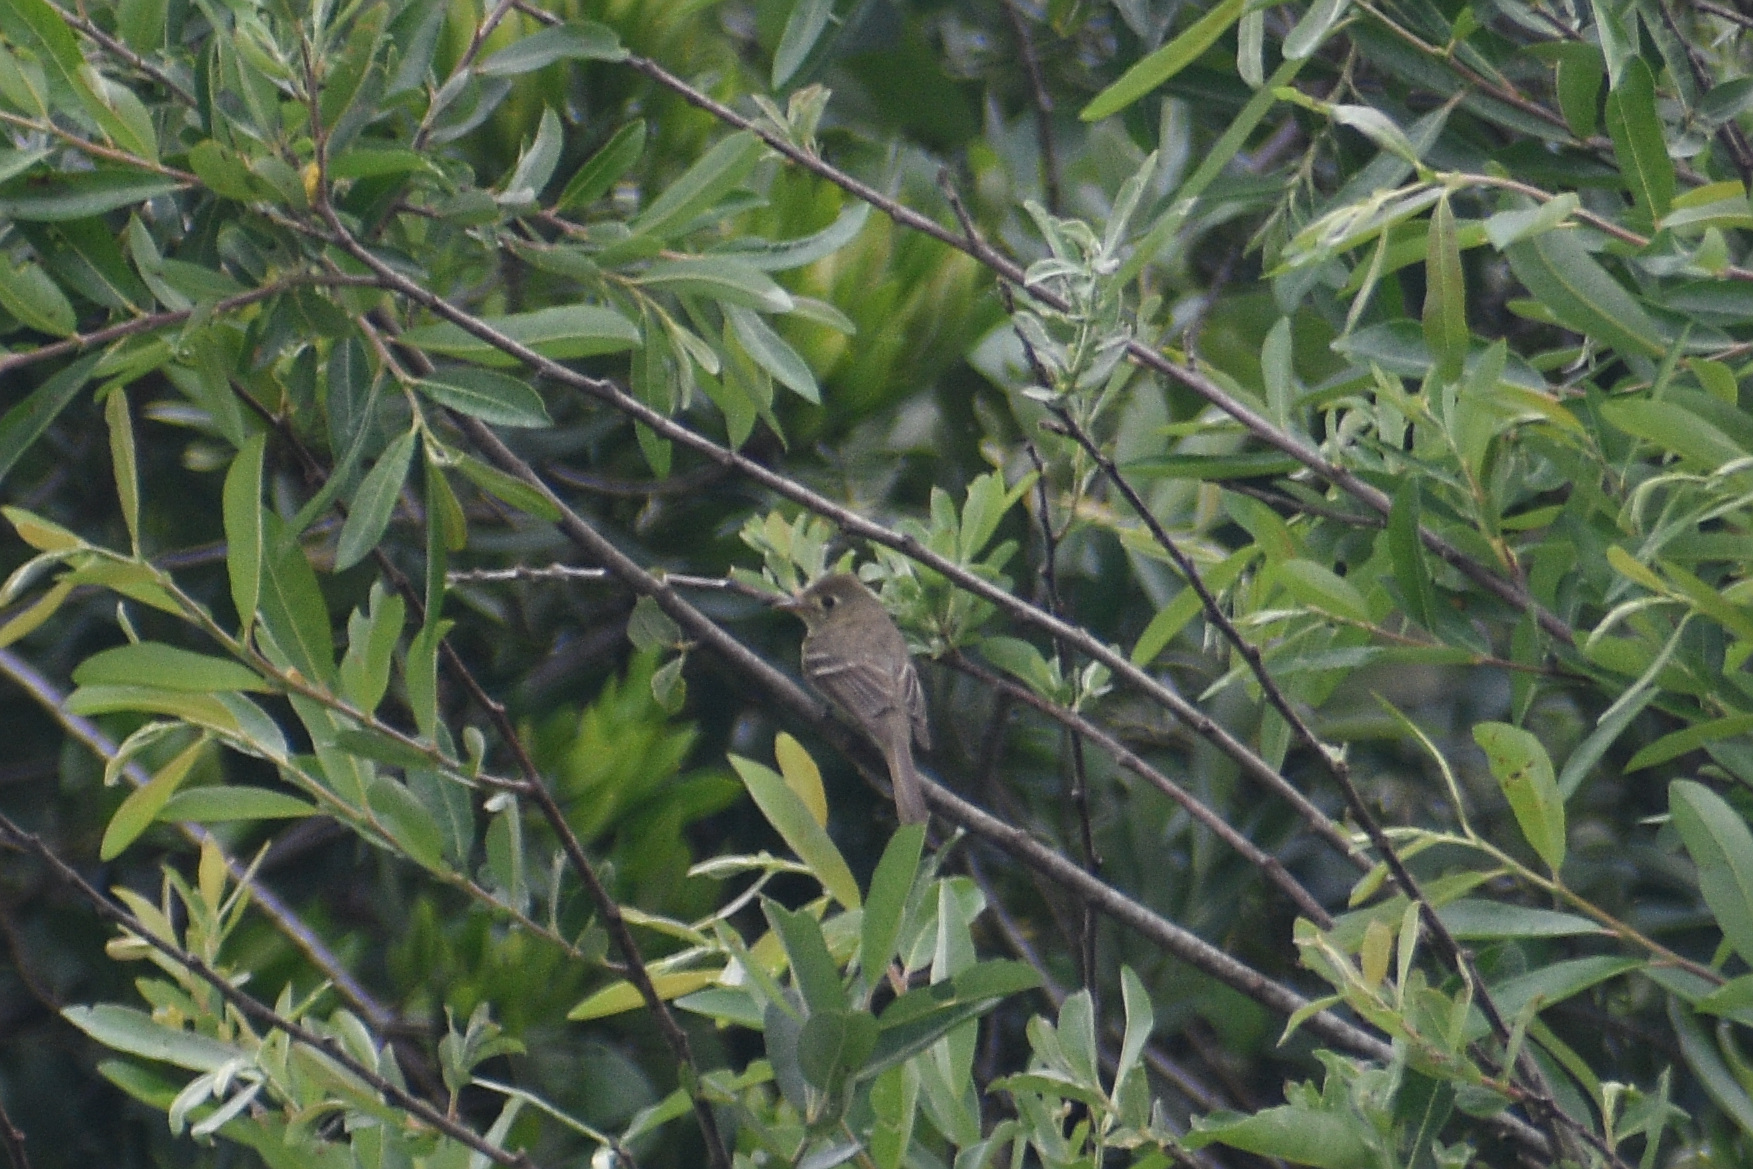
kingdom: Animalia
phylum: Chordata
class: Aves
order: Passeriformes
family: Tyrannidae
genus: Empidonax
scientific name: Empidonax difficilis
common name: Pacific-slope flycatcher
